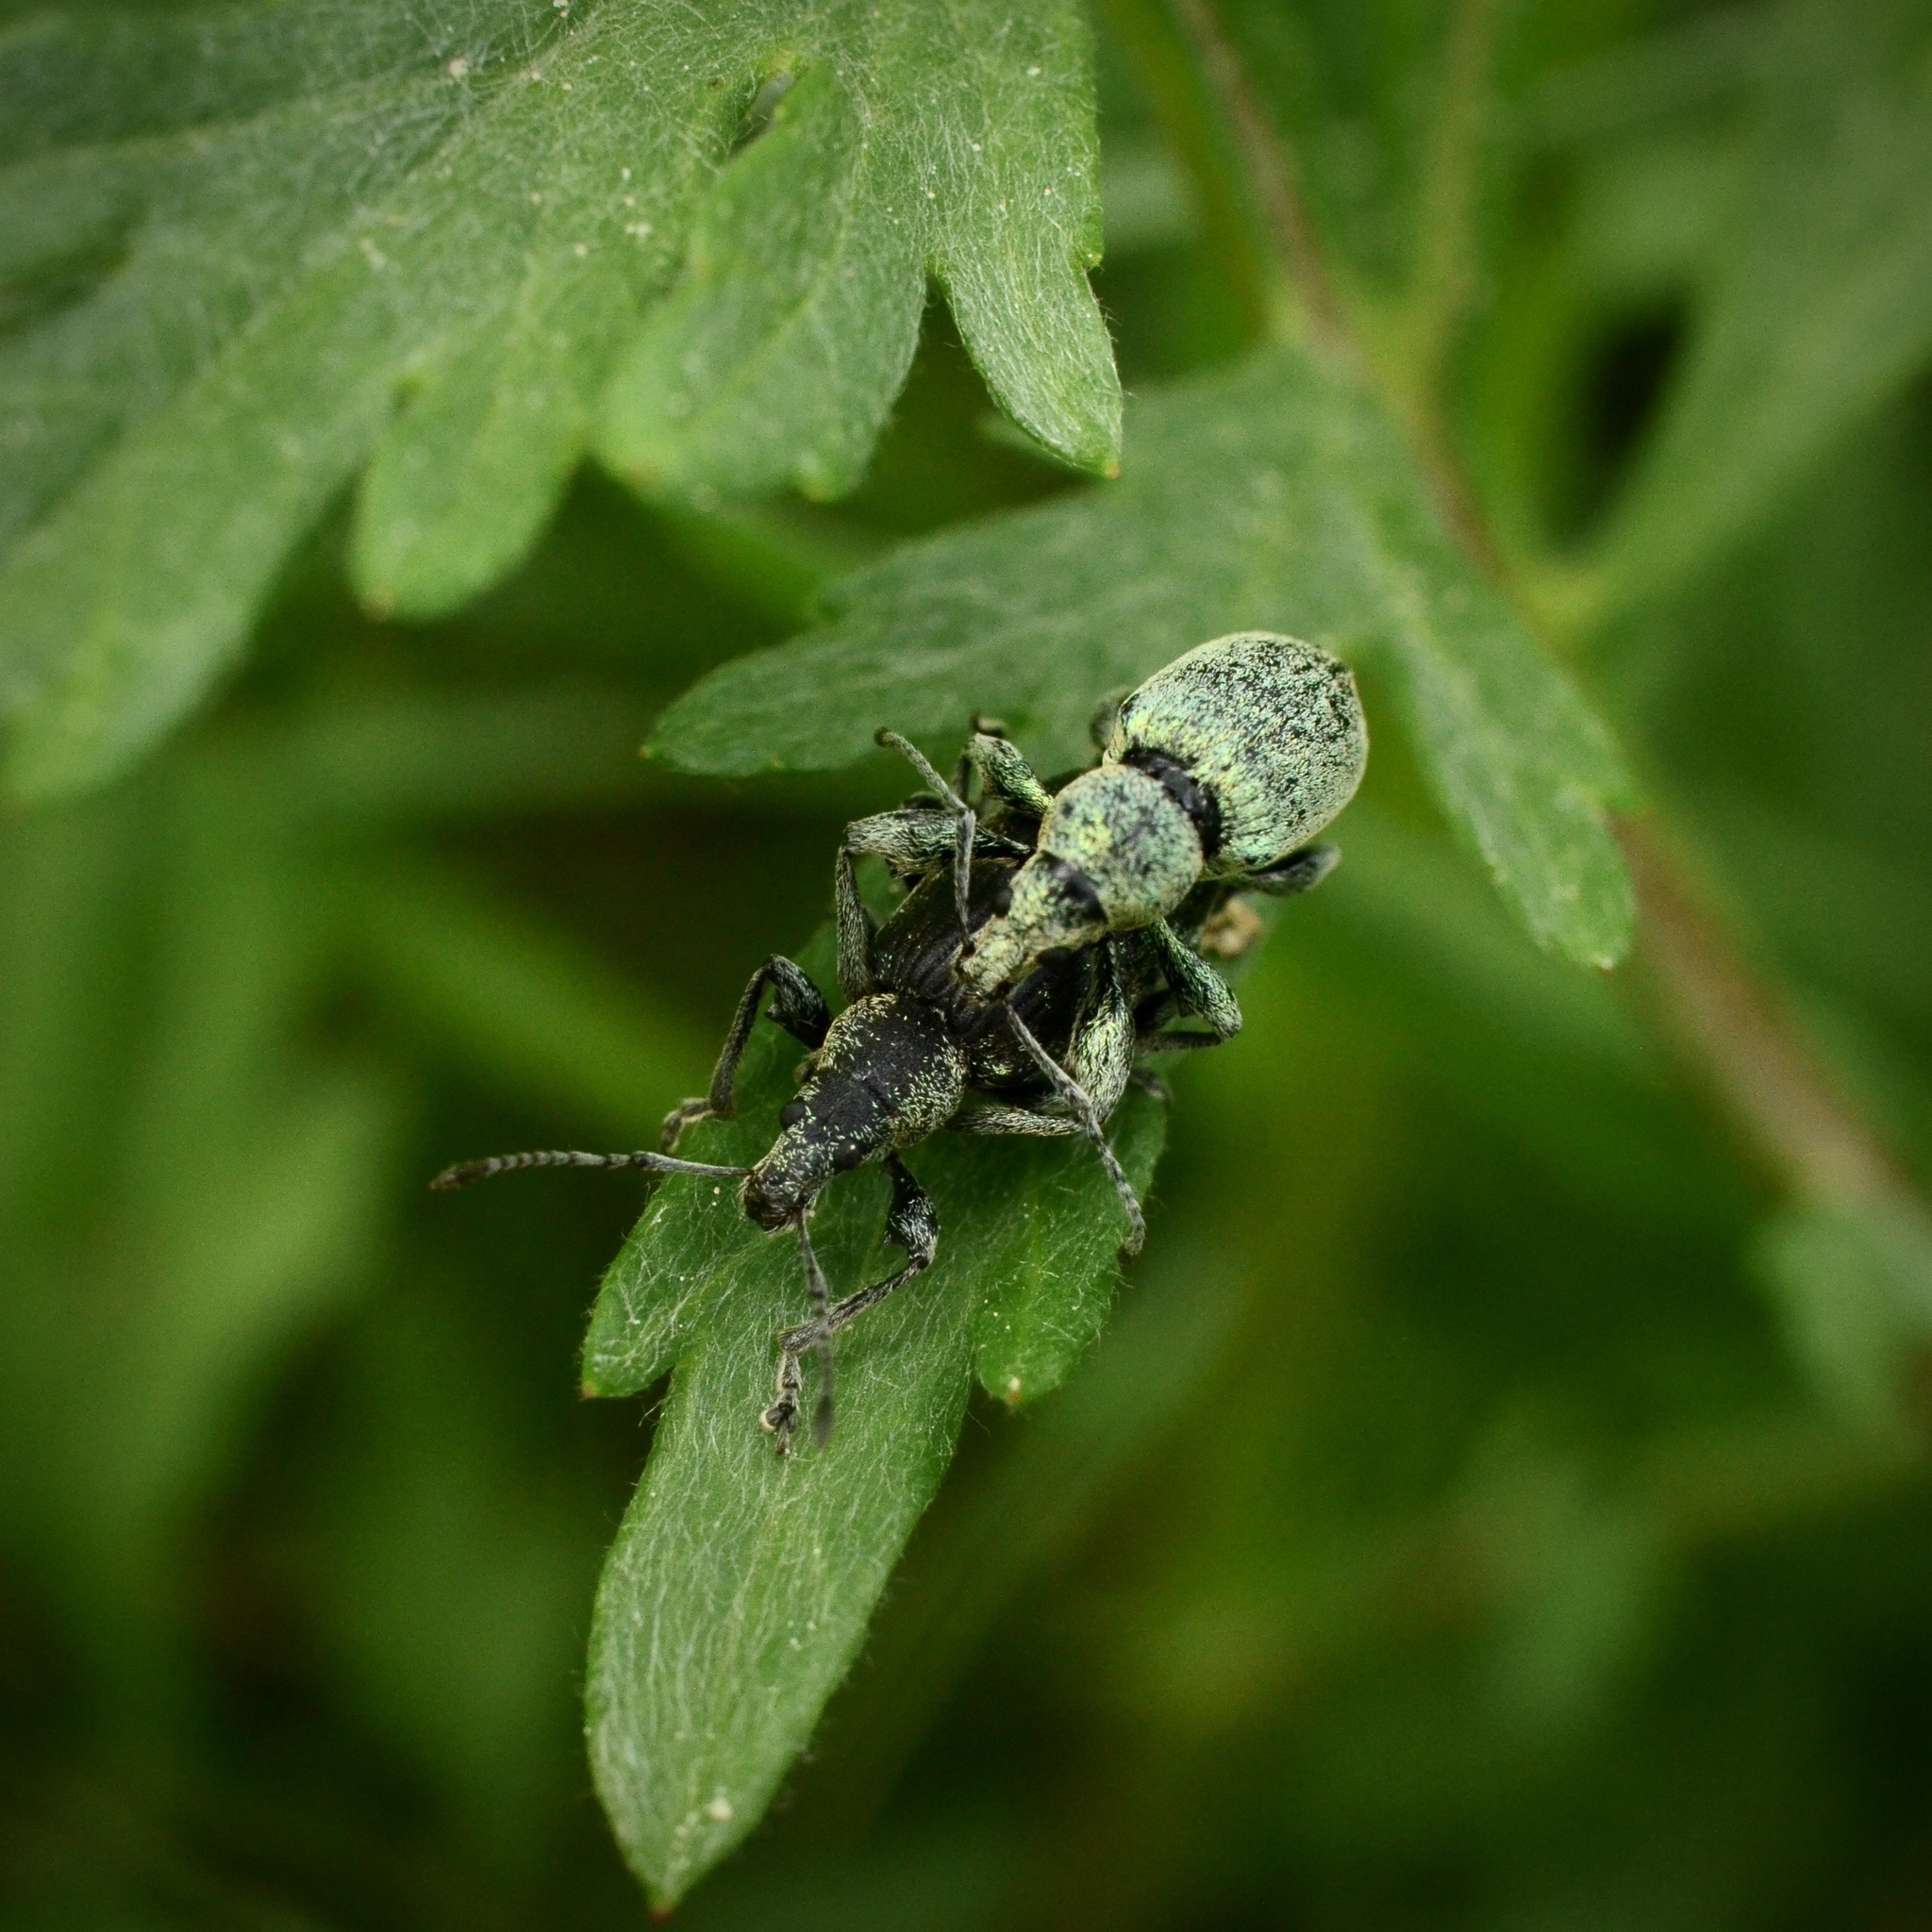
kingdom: Animalia
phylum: Arthropoda
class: Insecta
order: Coleoptera
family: Curculionidae
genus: Phyllobius
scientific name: Phyllobius pomaceus
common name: Green nettle weevil
